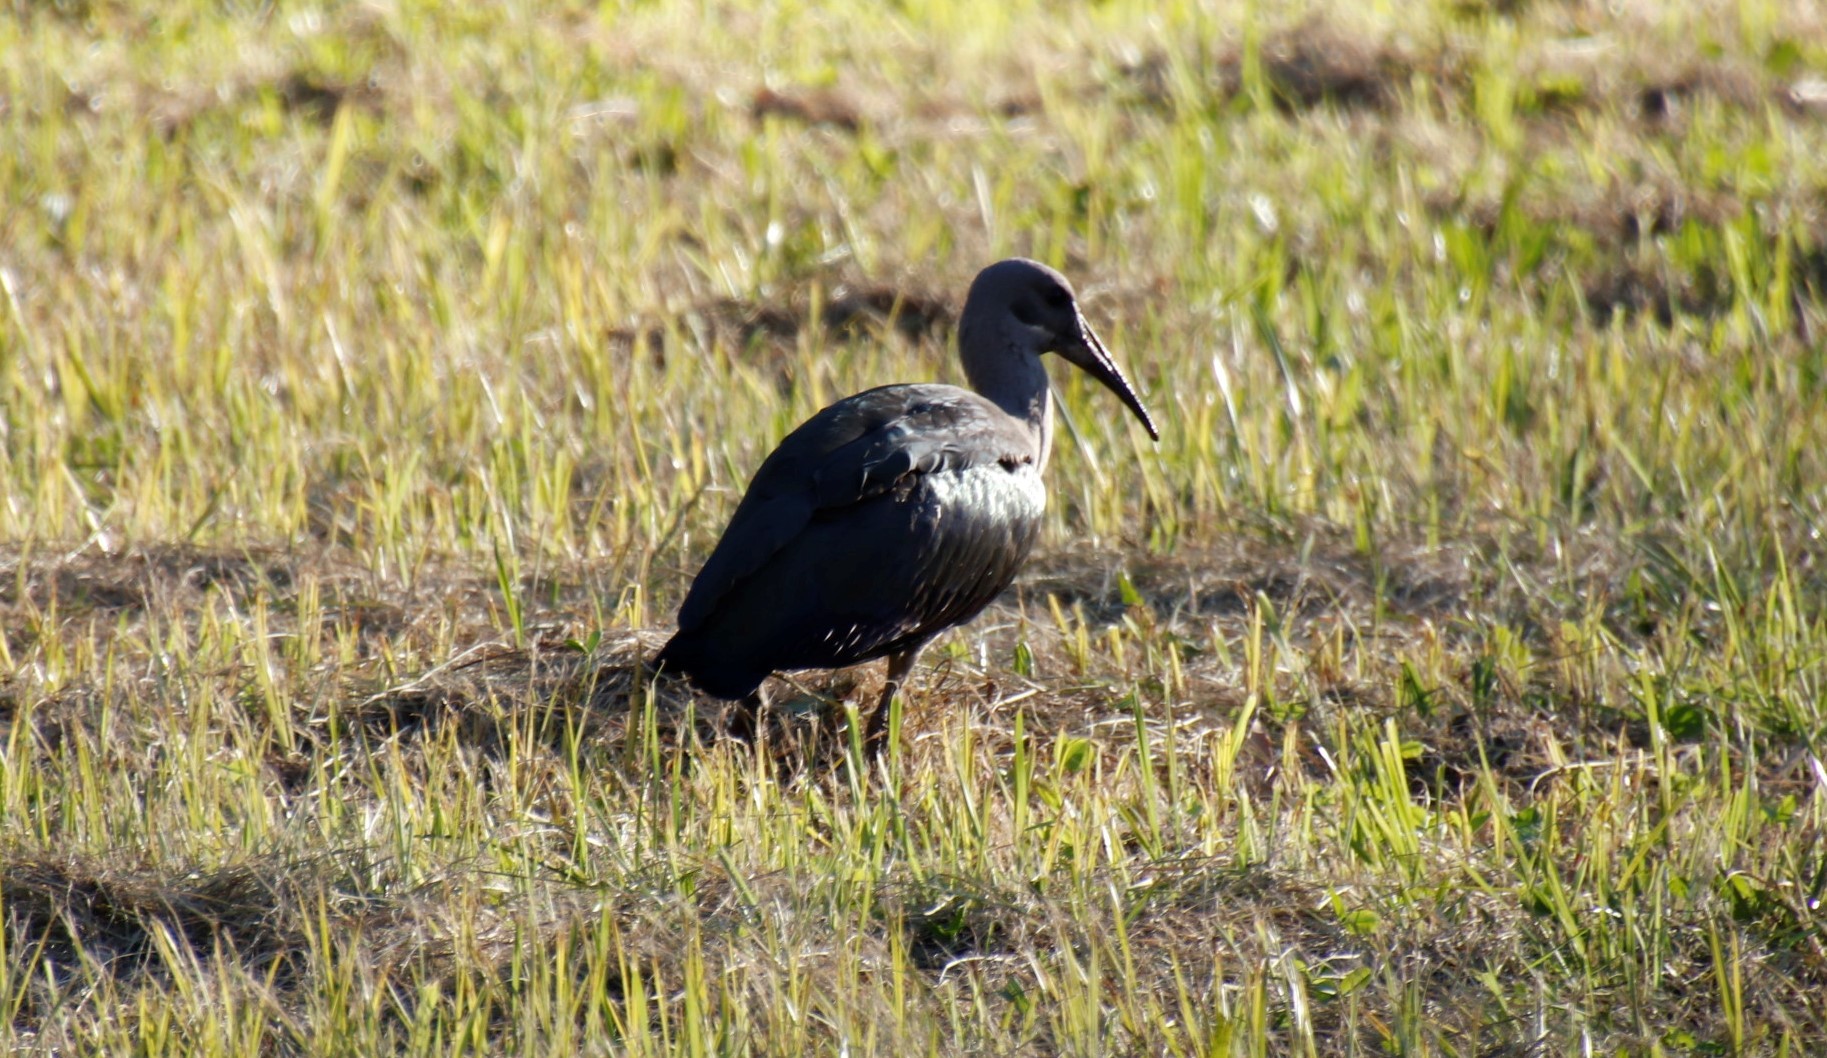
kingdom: Animalia
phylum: Chordata
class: Aves
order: Pelecaniformes
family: Threskiornithidae
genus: Bostrychia
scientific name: Bostrychia hagedash
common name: Hadada ibis
